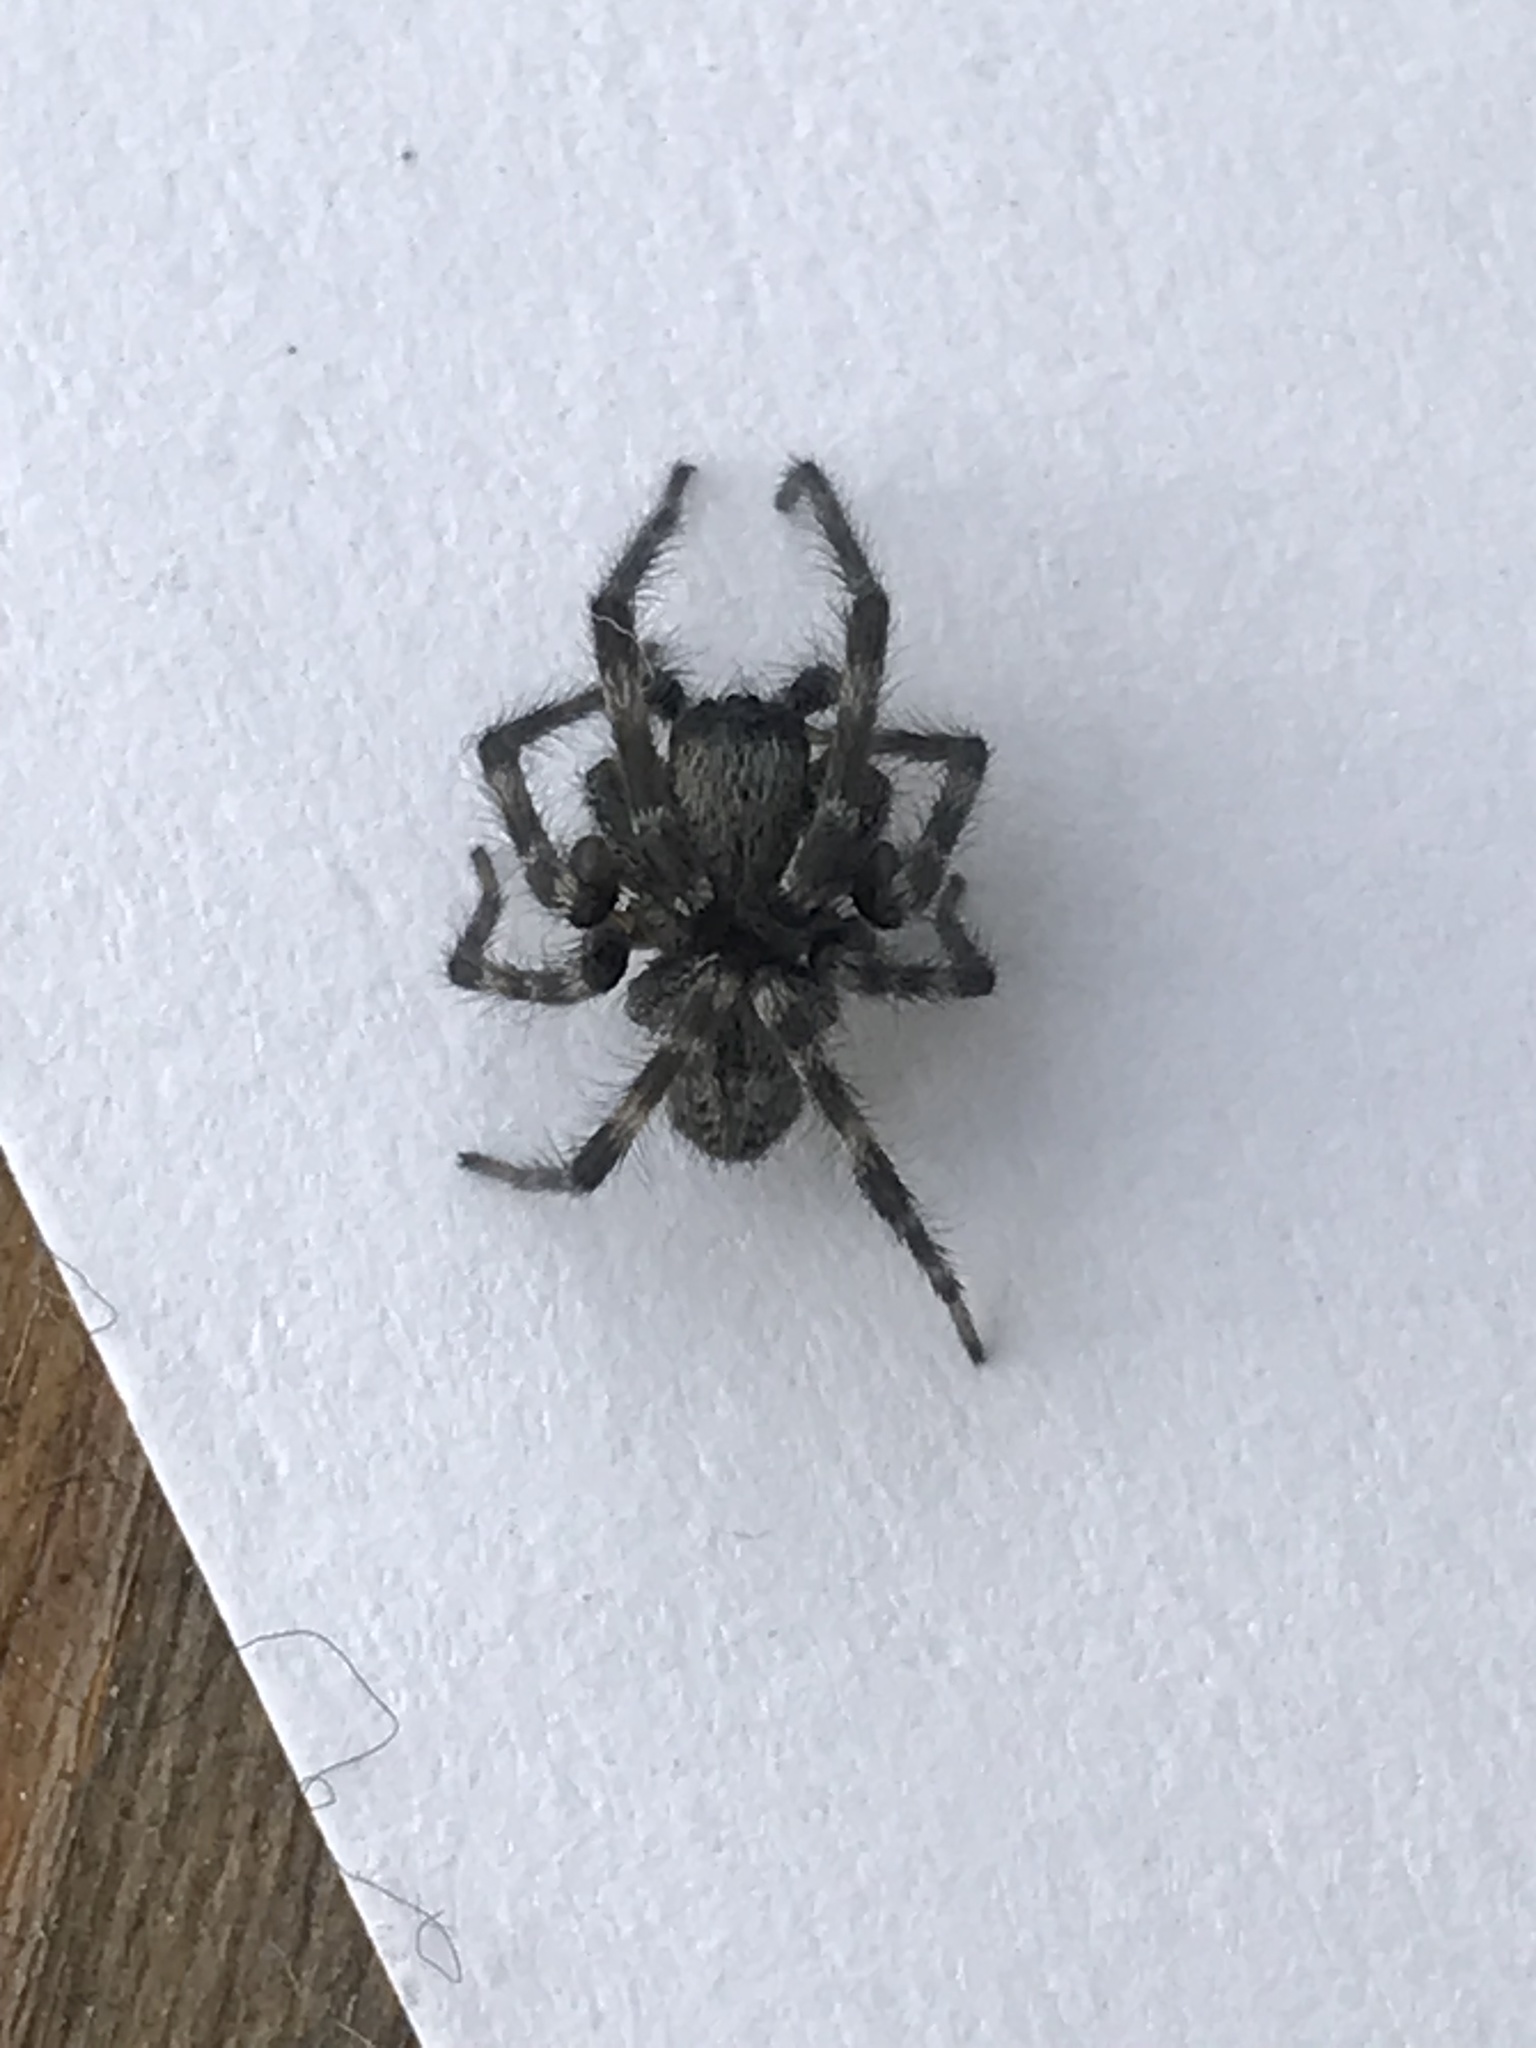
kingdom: Animalia
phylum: Arthropoda
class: Arachnida
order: Araneae
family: Desidae
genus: Badumna
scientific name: Badumna longinqua
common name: Gray house spider
